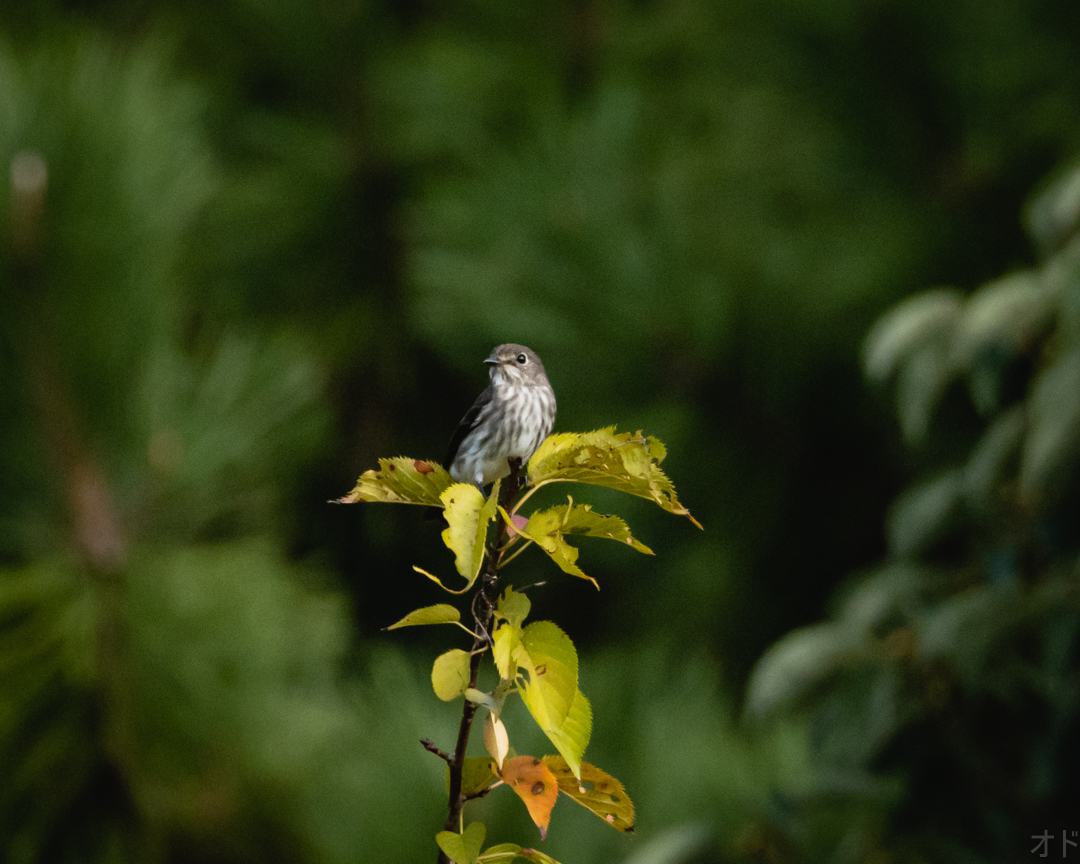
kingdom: Animalia
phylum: Chordata
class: Aves
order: Passeriformes
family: Muscicapidae
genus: Muscicapa
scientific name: Muscicapa griseisticta
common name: Gray-streaked flycatcher
